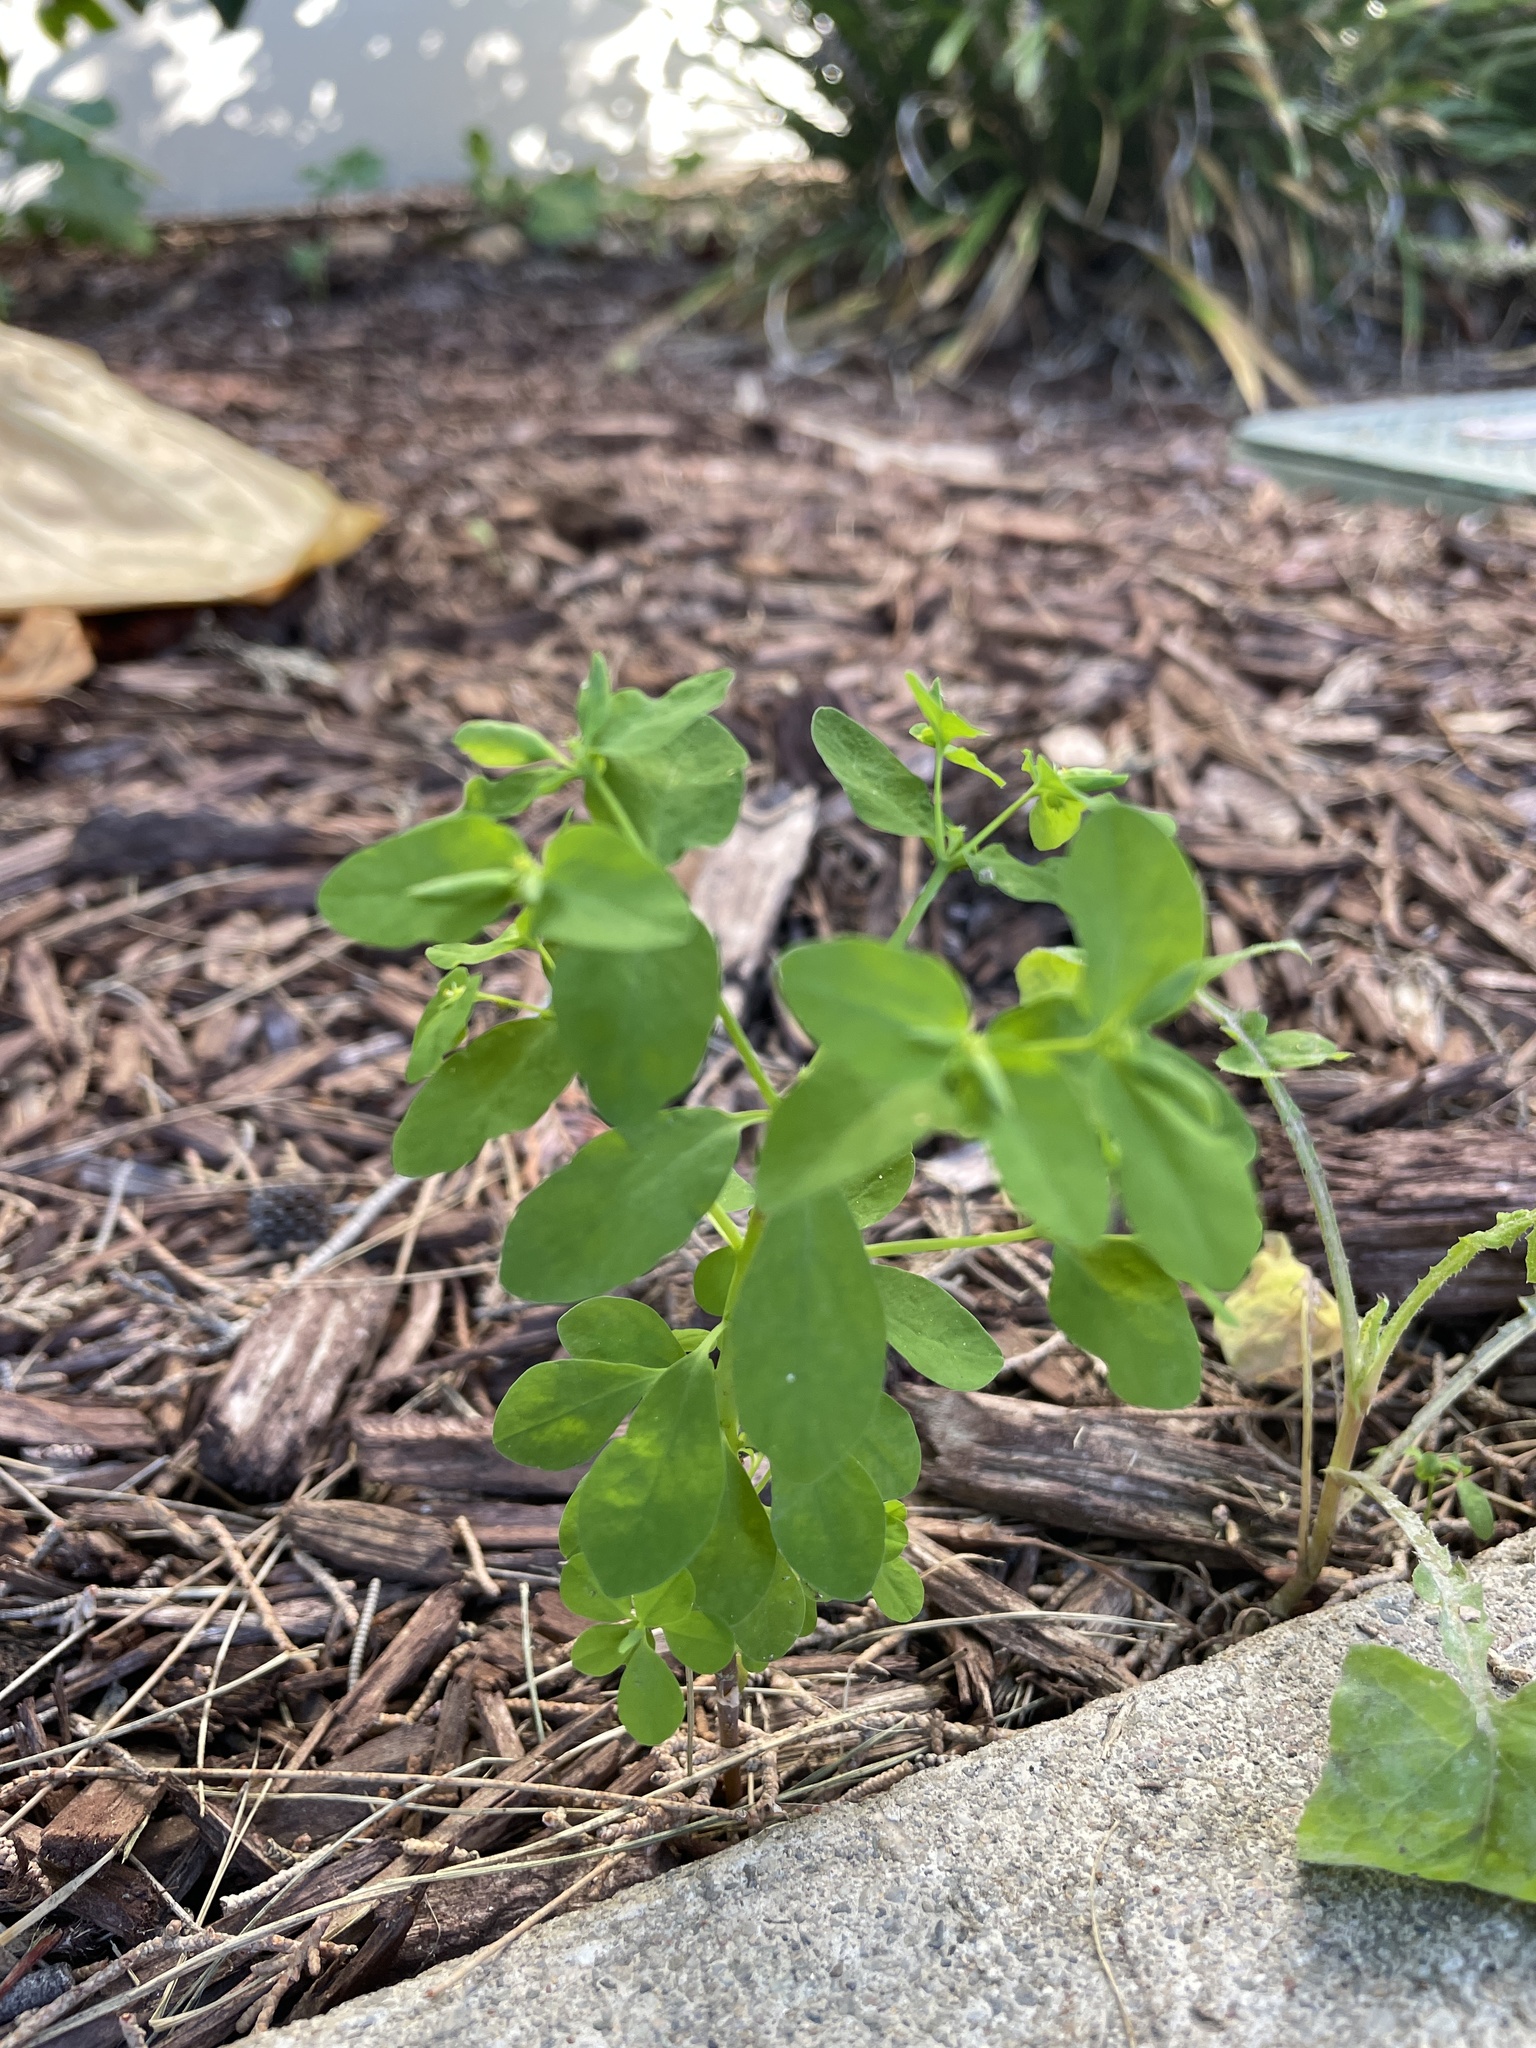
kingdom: Plantae
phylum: Tracheophyta
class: Magnoliopsida
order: Malpighiales
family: Euphorbiaceae
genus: Euphorbia
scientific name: Euphorbia peplus
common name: Petty spurge
